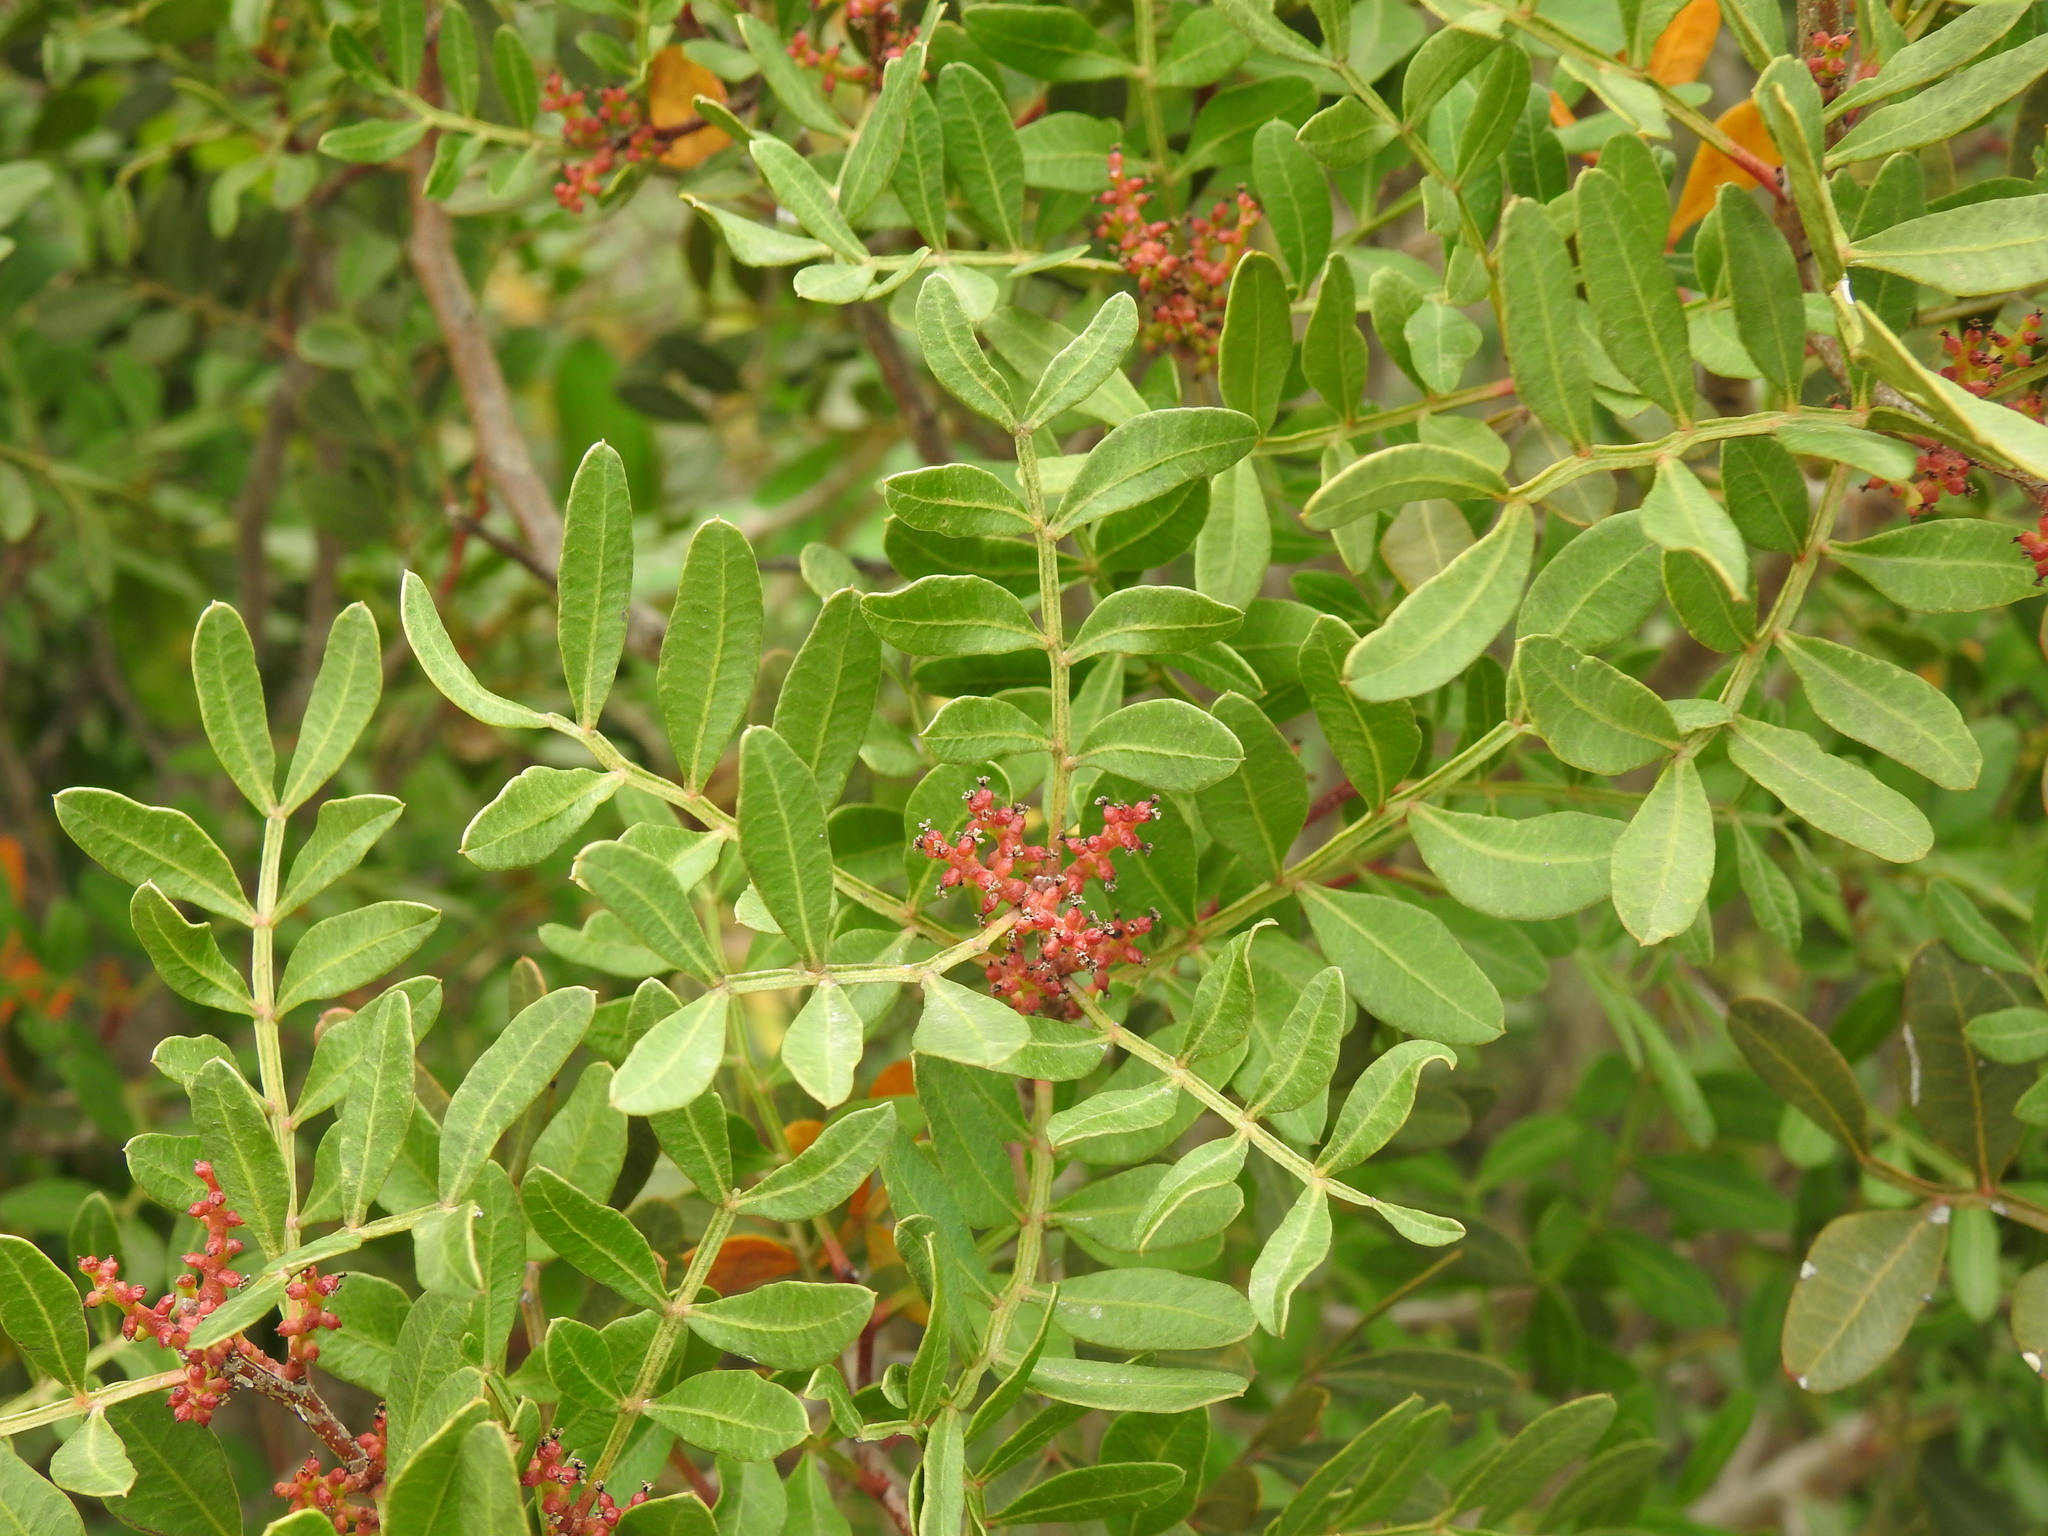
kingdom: Plantae
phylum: Tracheophyta
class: Magnoliopsida
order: Sapindales
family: Anacardiaceae
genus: Pistacia
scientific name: Pistacia lentiscus
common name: Lentisk
